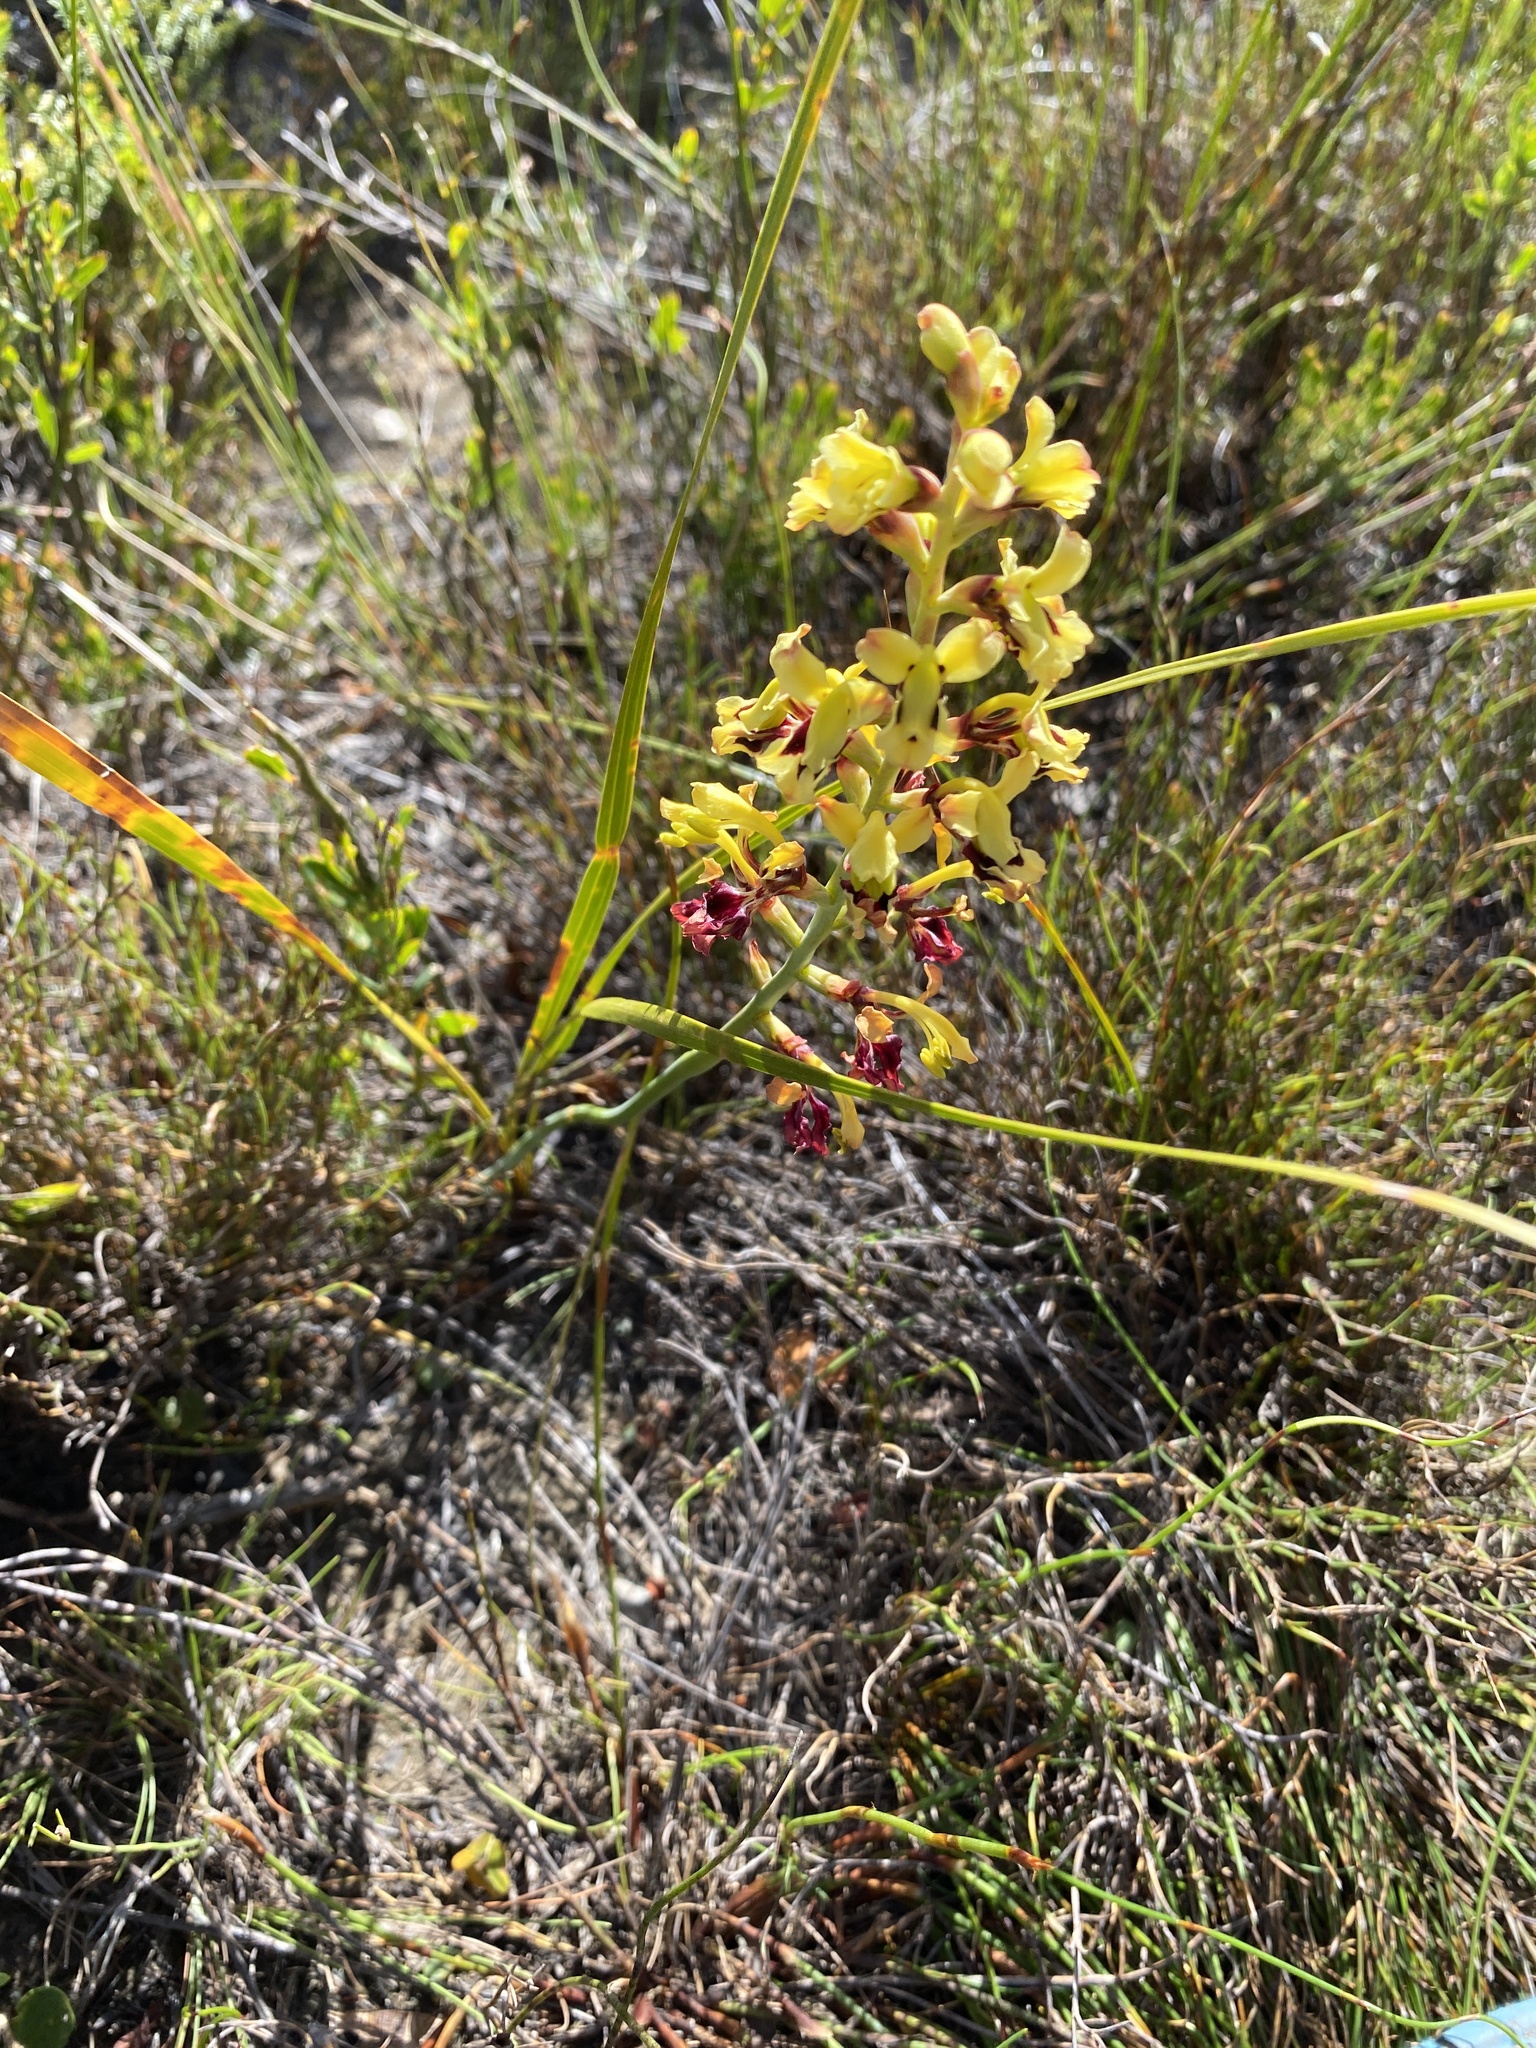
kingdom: Plantae
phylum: Tracheophyta
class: Liliopsida
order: Asparagales
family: Iridaceae
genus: Tritoniopsis
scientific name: Tritoniopsis parviflora
